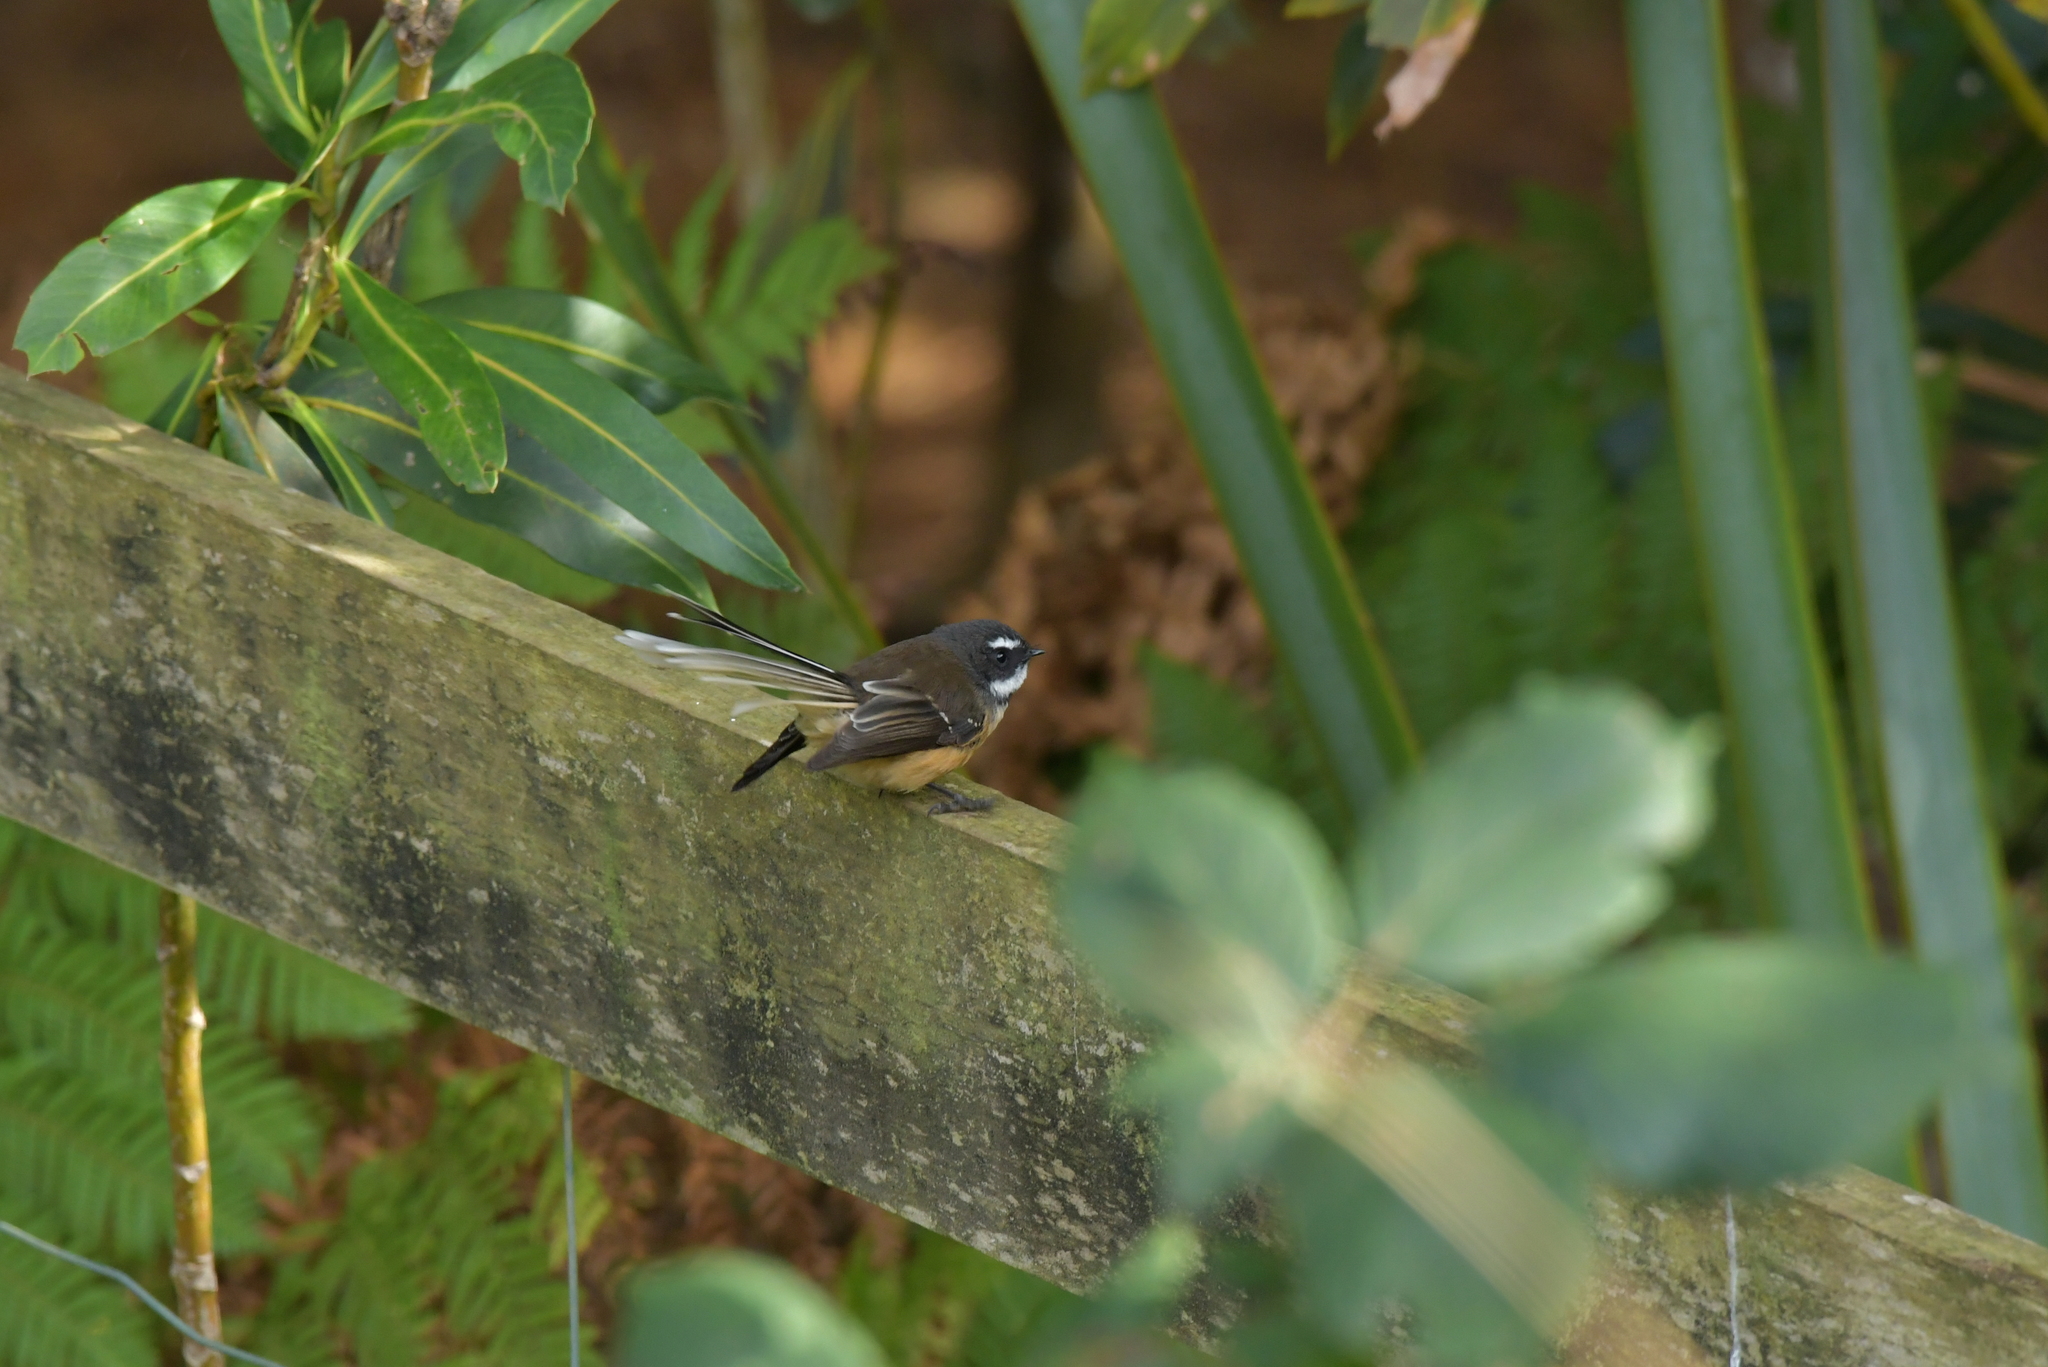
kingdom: Animalia
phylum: Chordata
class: Aves
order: Passeriformes
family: Rhipiduridae
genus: Rhipidura
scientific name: Rhipidura fuliginosa
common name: New zealand fantail
